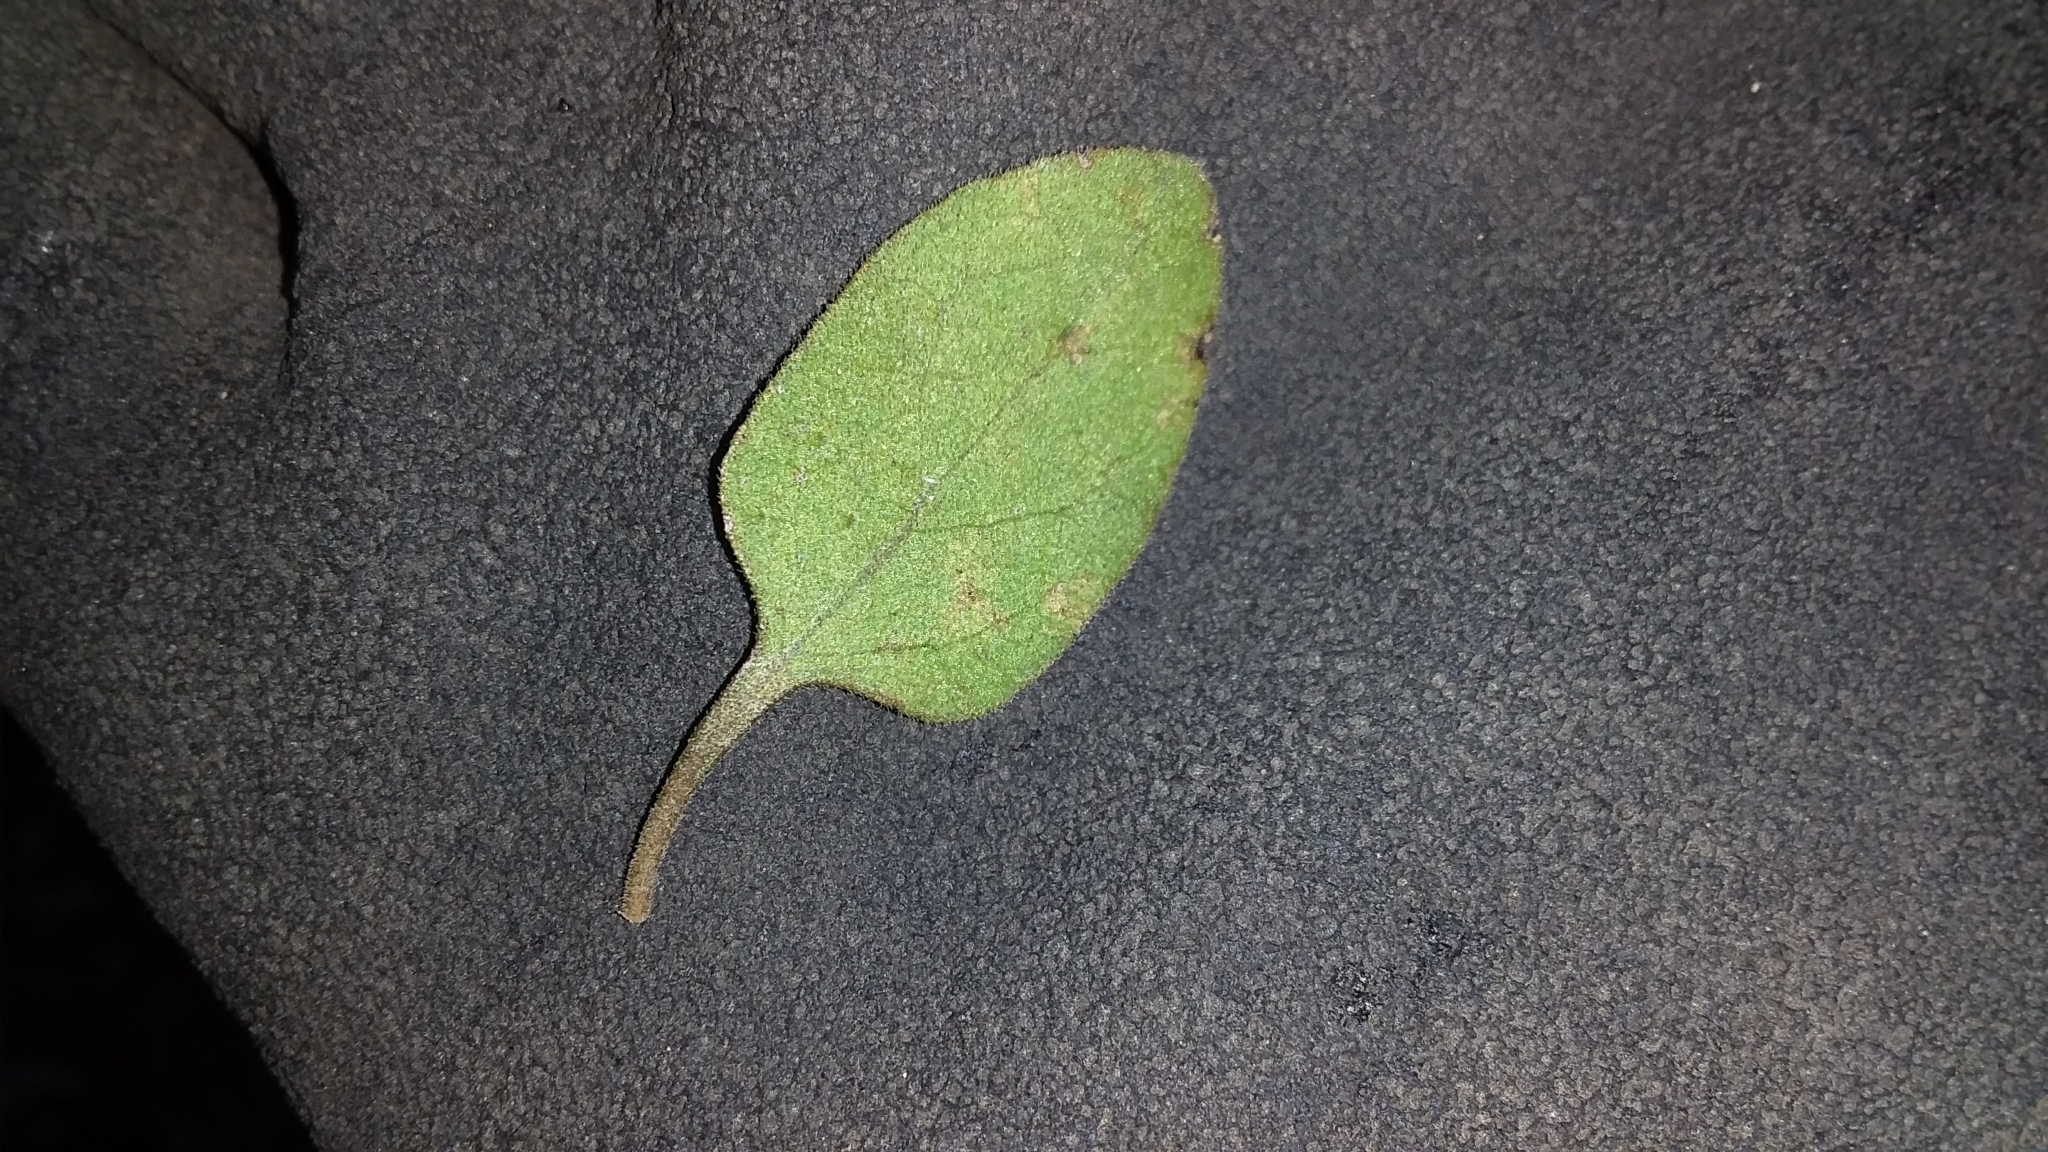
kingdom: Plantae
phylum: Tracheophyta
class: Magnoliopsida
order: Gentianales
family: Rubiaceae
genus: Coprosma
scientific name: Coprosma rubra
